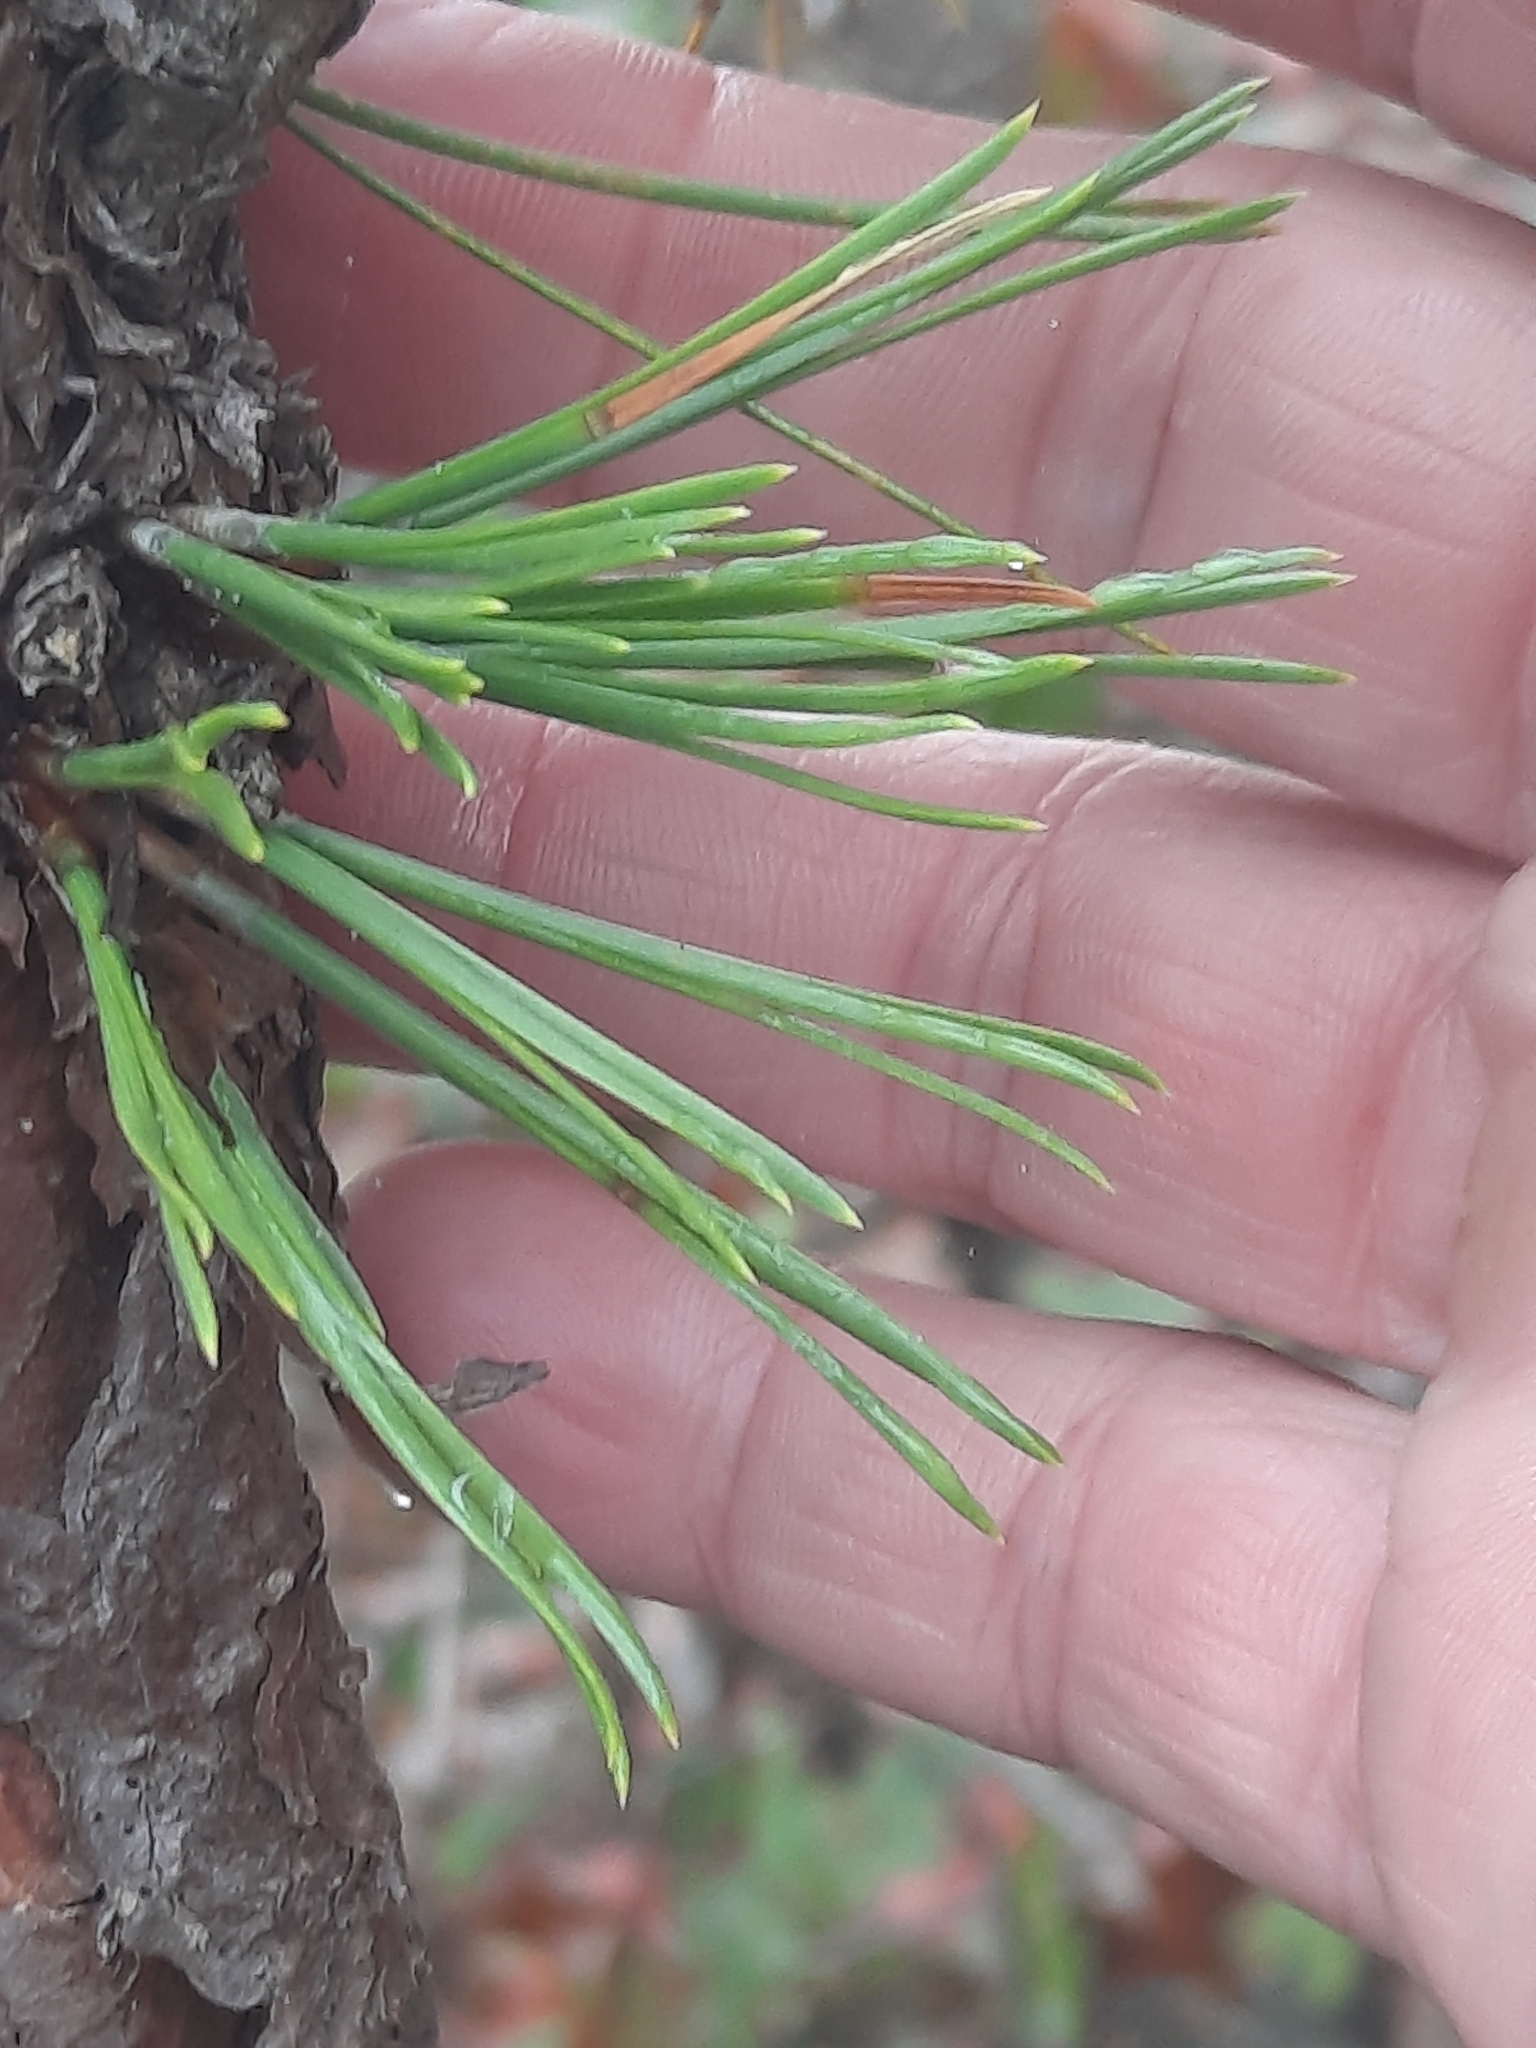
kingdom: Plantae
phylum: Tracheophyta
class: Pinopsida
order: Pinales
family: Pinaceae
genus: Pinus
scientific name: Pinus rigida
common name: Pitch pine
